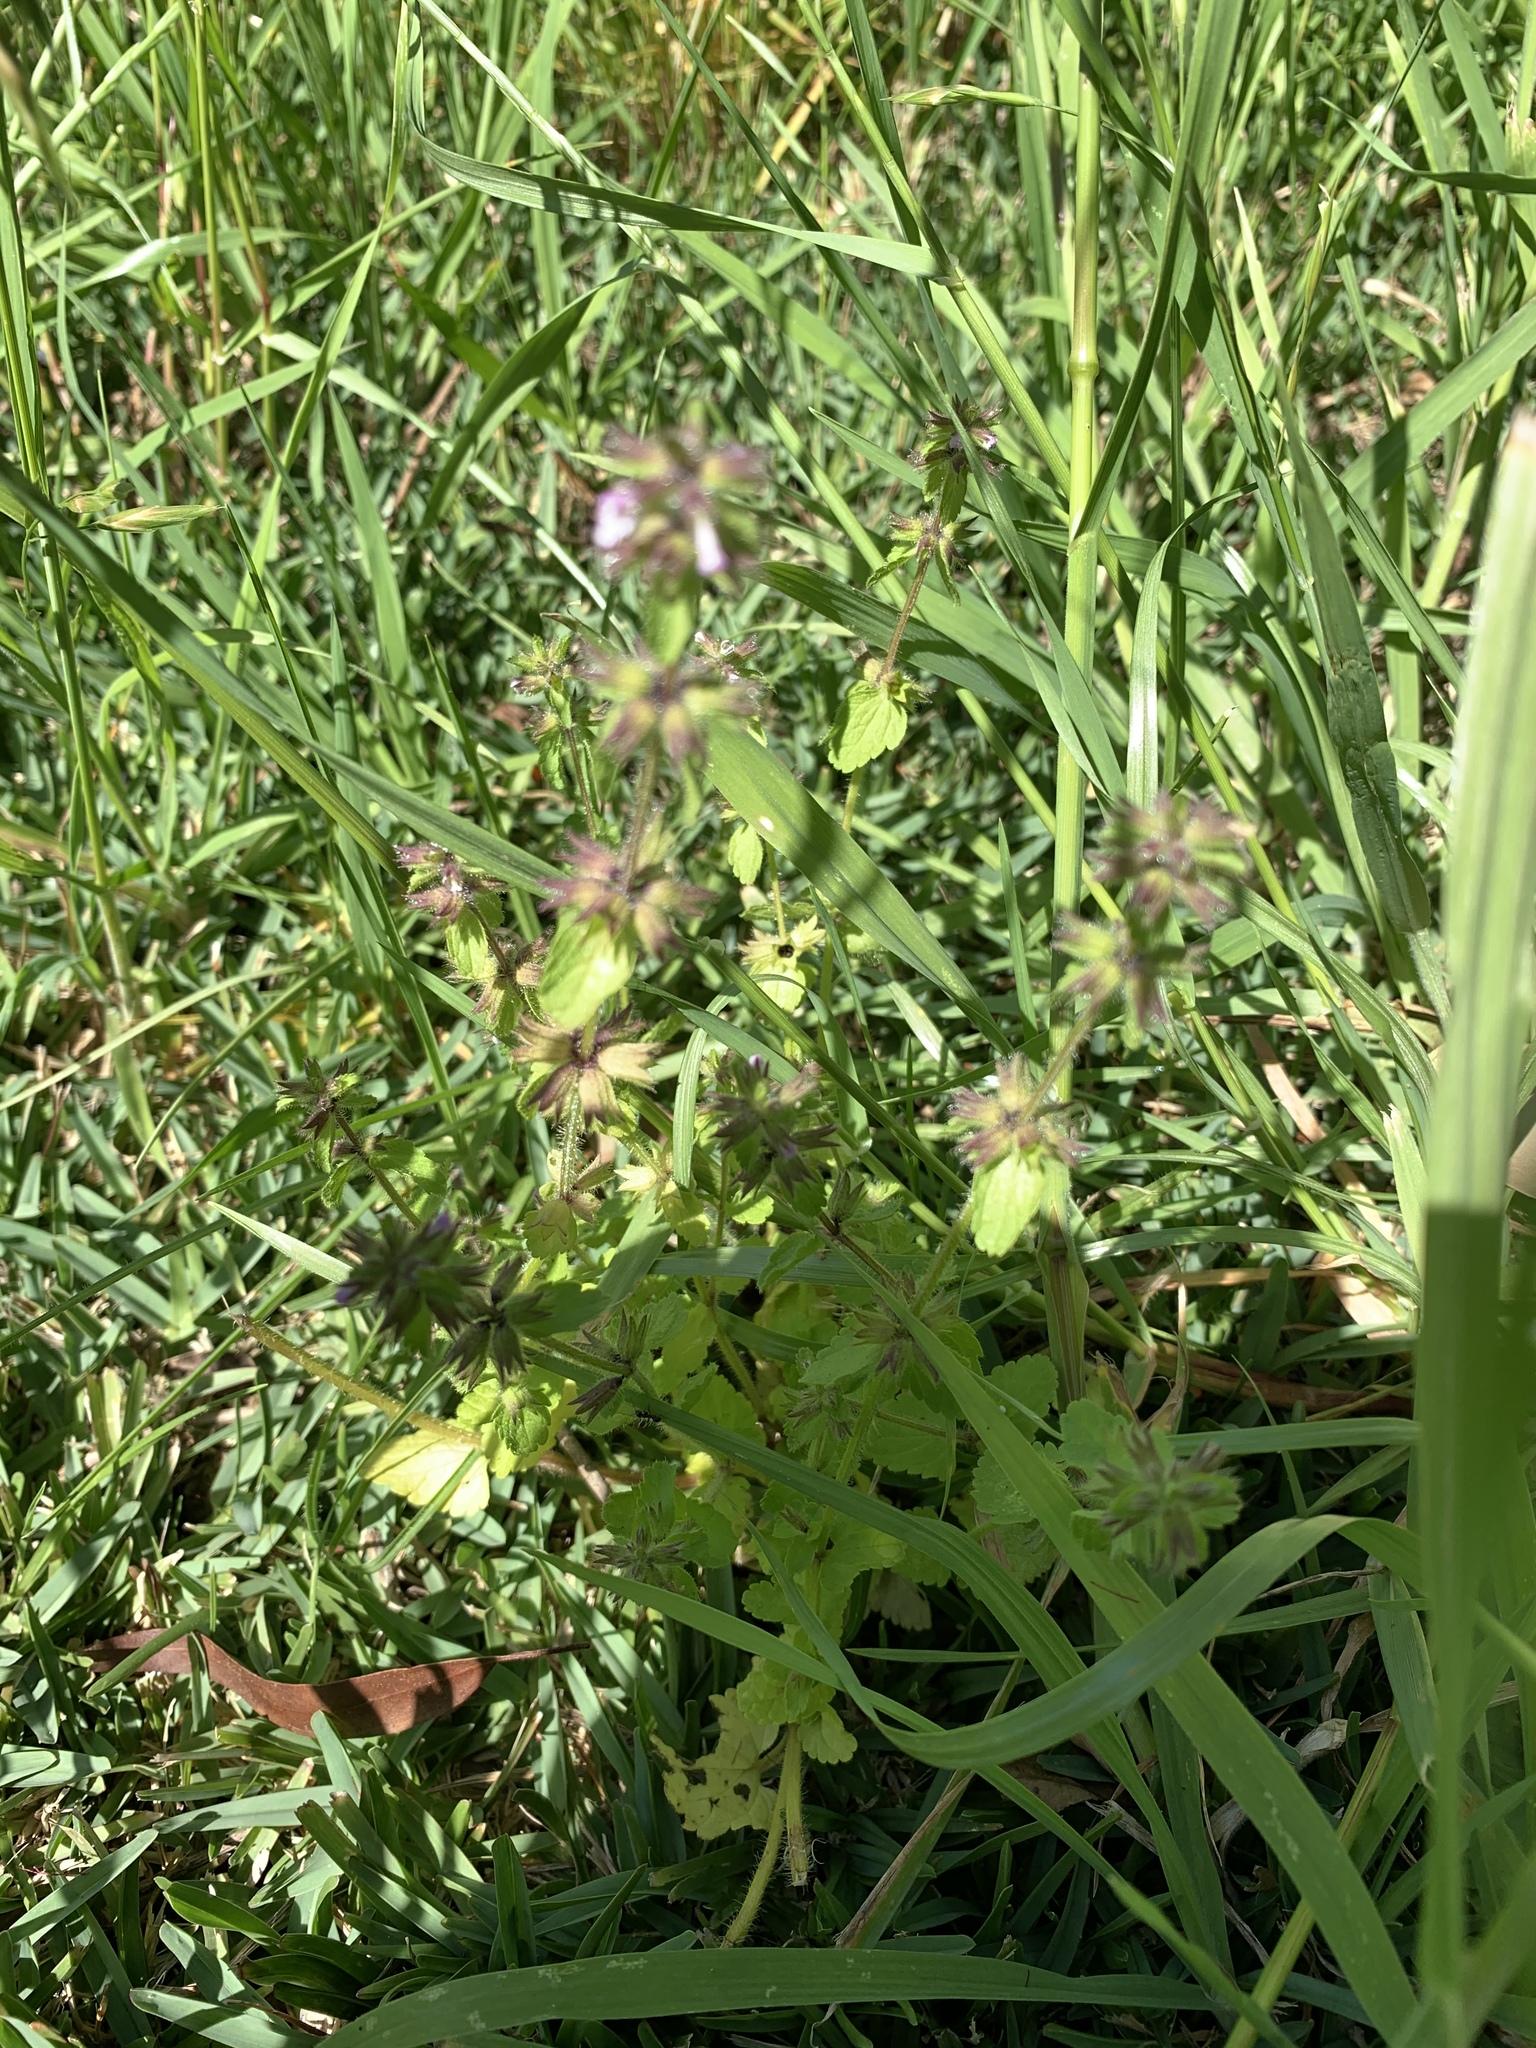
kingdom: Plantae
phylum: Tracheophyta
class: Magnoliopsida
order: Lamiales
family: Lamiaceae
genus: Stachys
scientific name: Stachys arvensis
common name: Field woundwort
